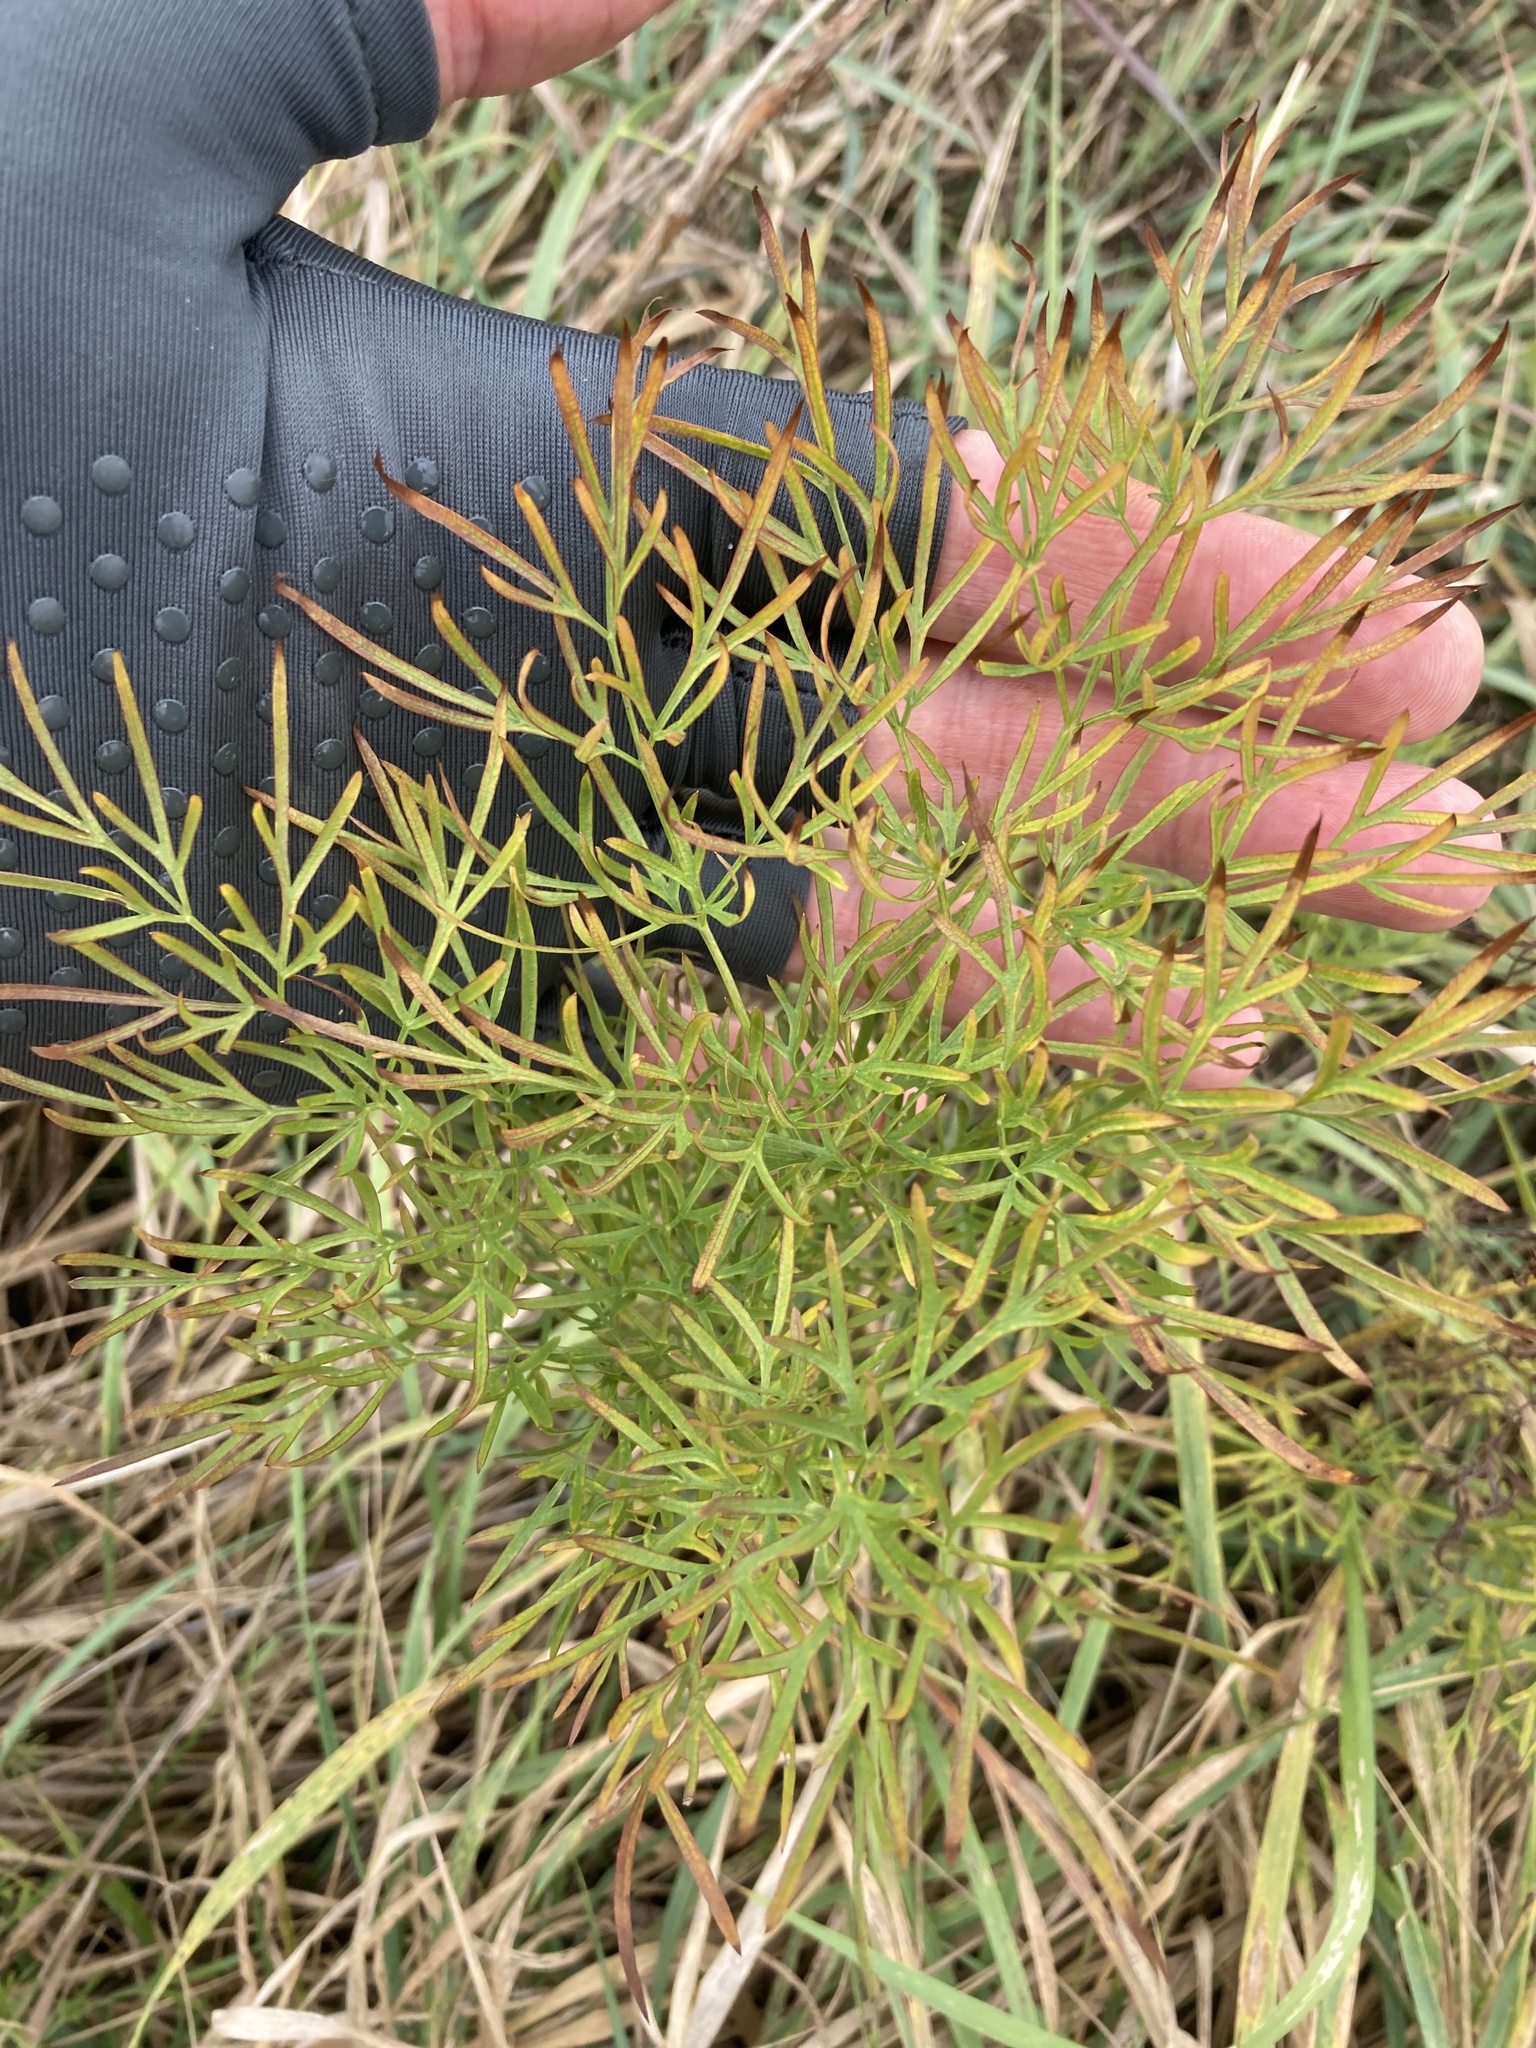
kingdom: Plantae
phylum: Tracheophyta
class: Magnoliopsida
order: Apiales
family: Apiaceae
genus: Silaum
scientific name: Silaum silaus
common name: Pepper-saxifrage
